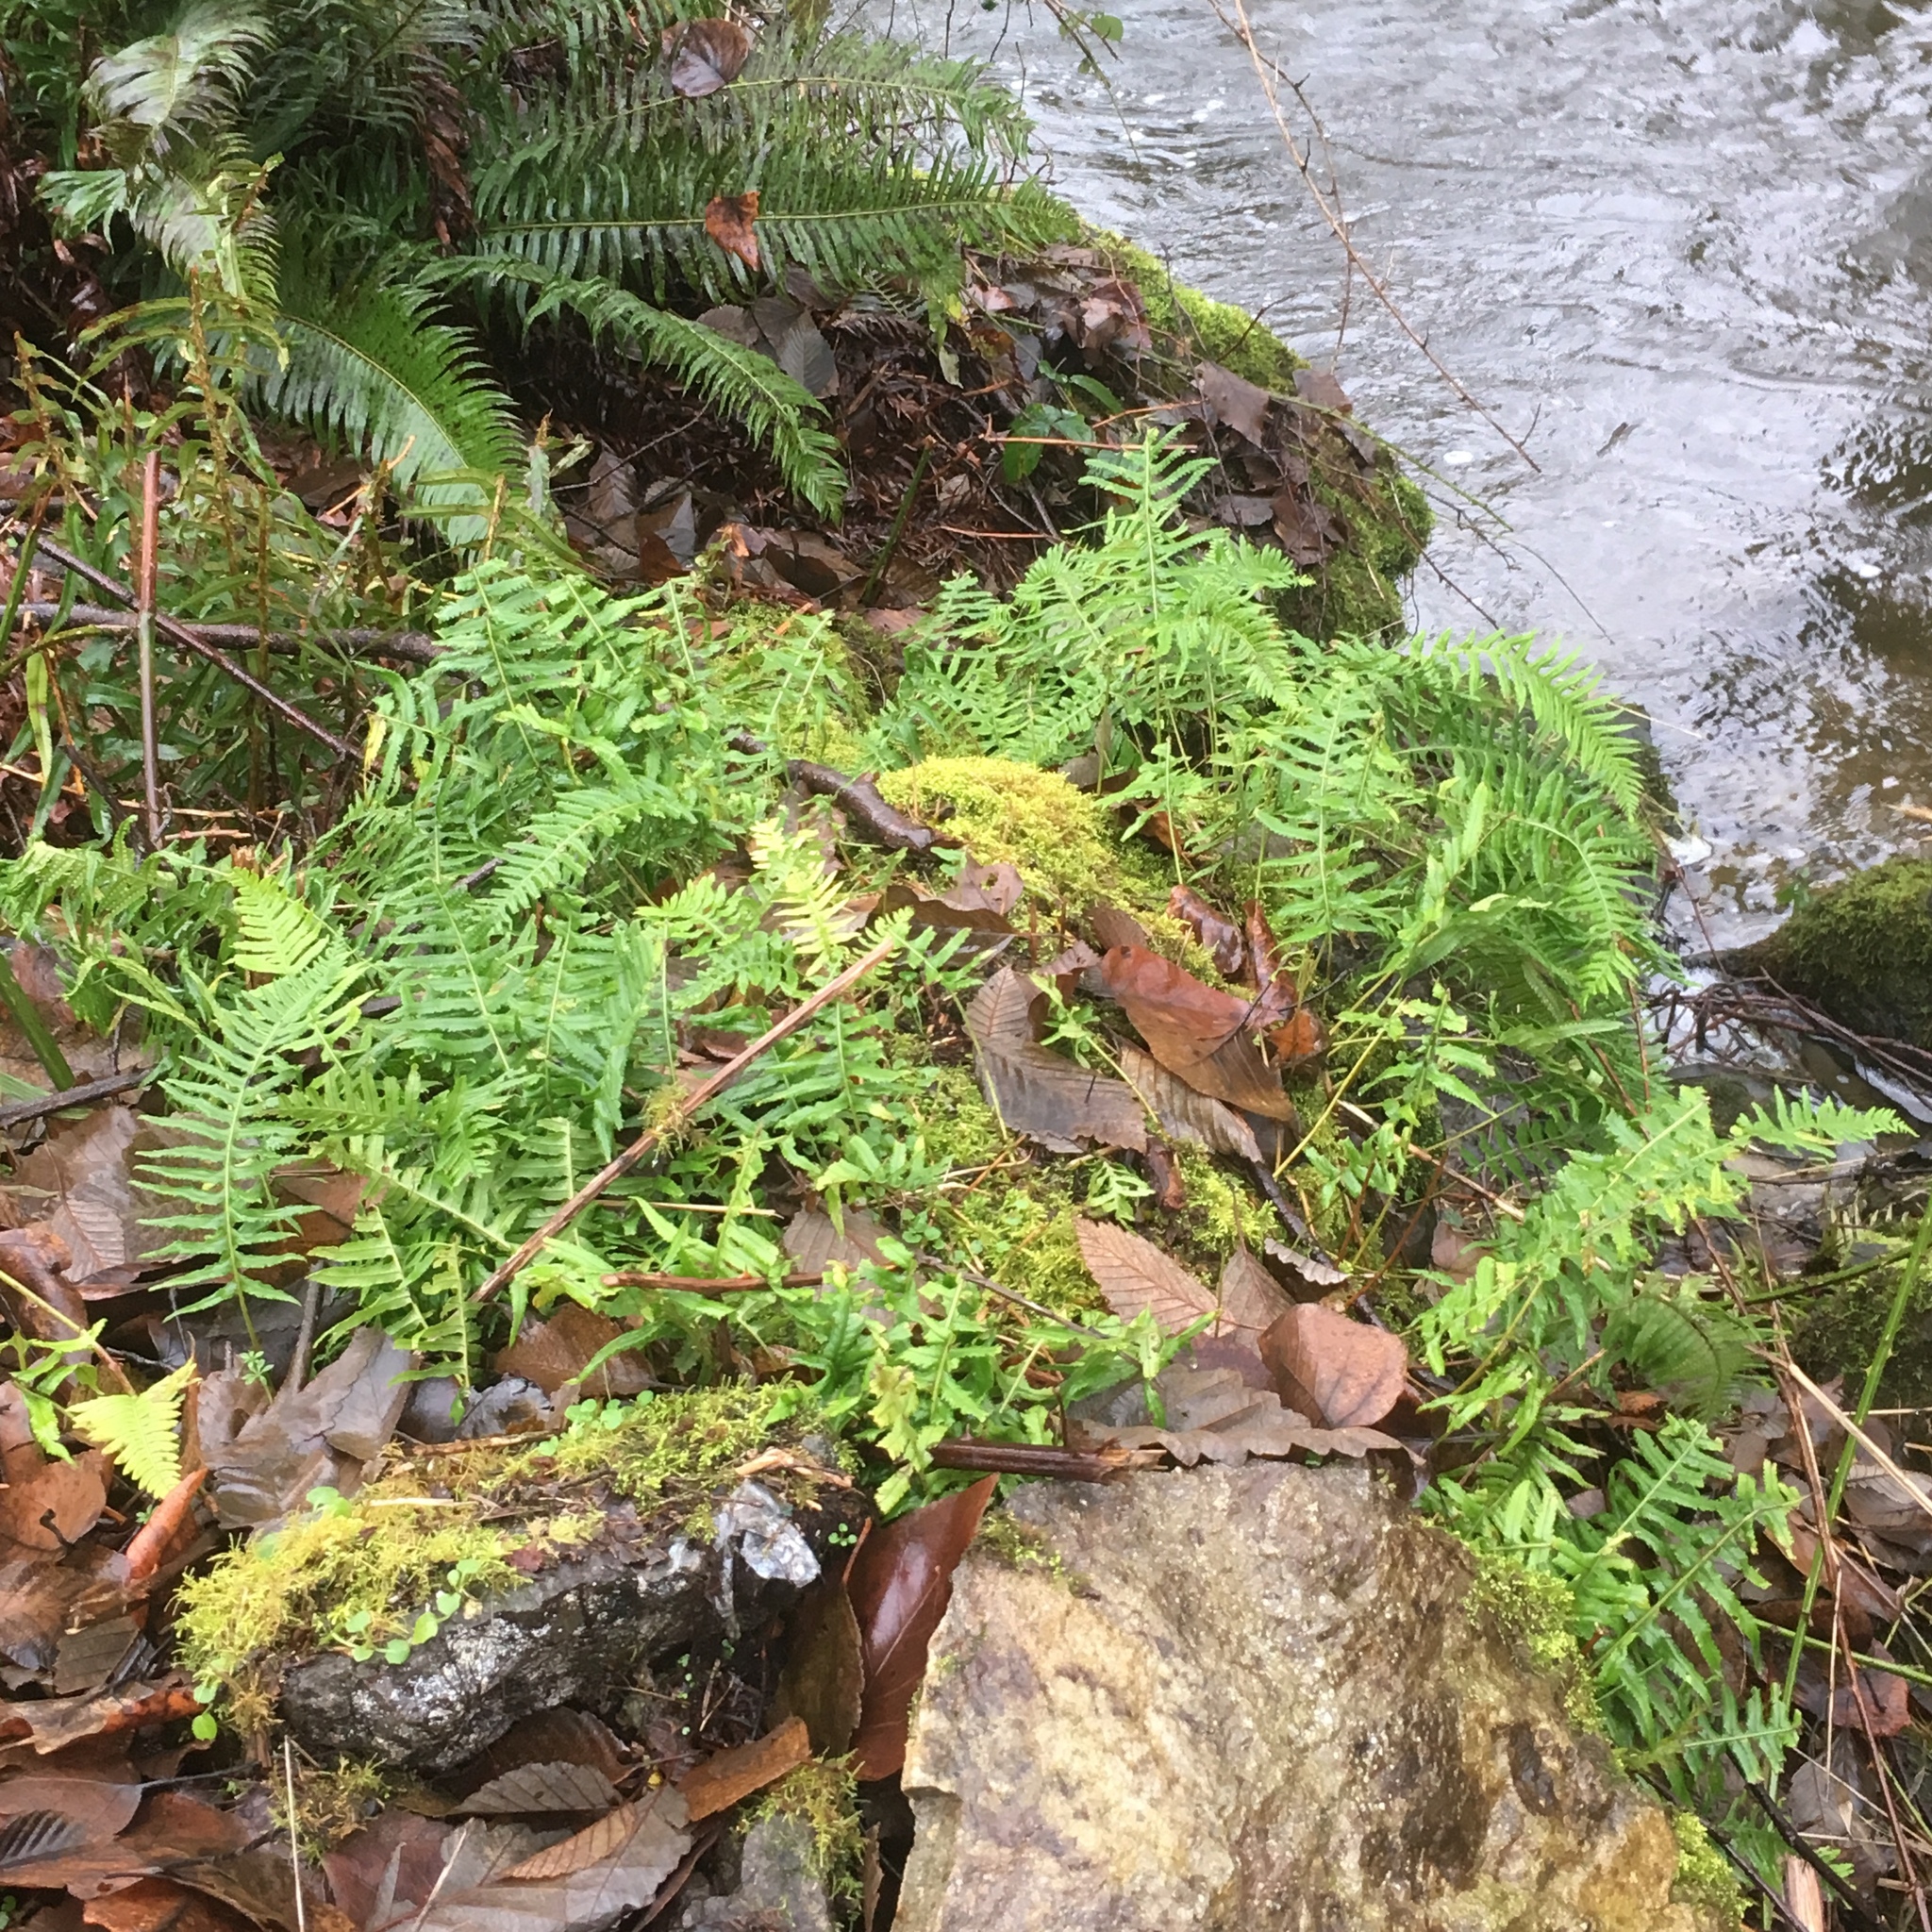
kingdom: Plantae
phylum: Tracheophyta
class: Polypodiopsida
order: Polypodiales
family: Polypodiaceae
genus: Polypodium
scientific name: Polypodium glycyrrhiza
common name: Licorice fern
